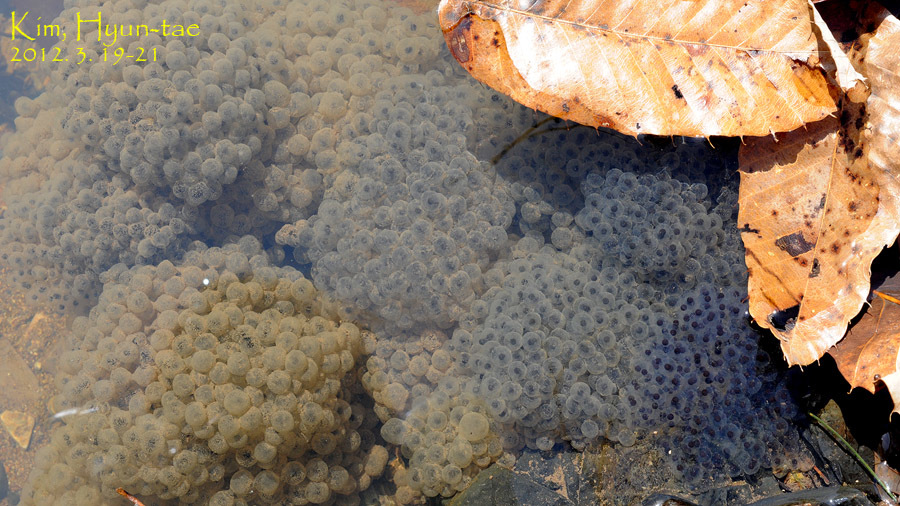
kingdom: Animalia
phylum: Chordata
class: Amphibia
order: Anura
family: Ranidae
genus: Rana
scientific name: Rana huanrenensis
